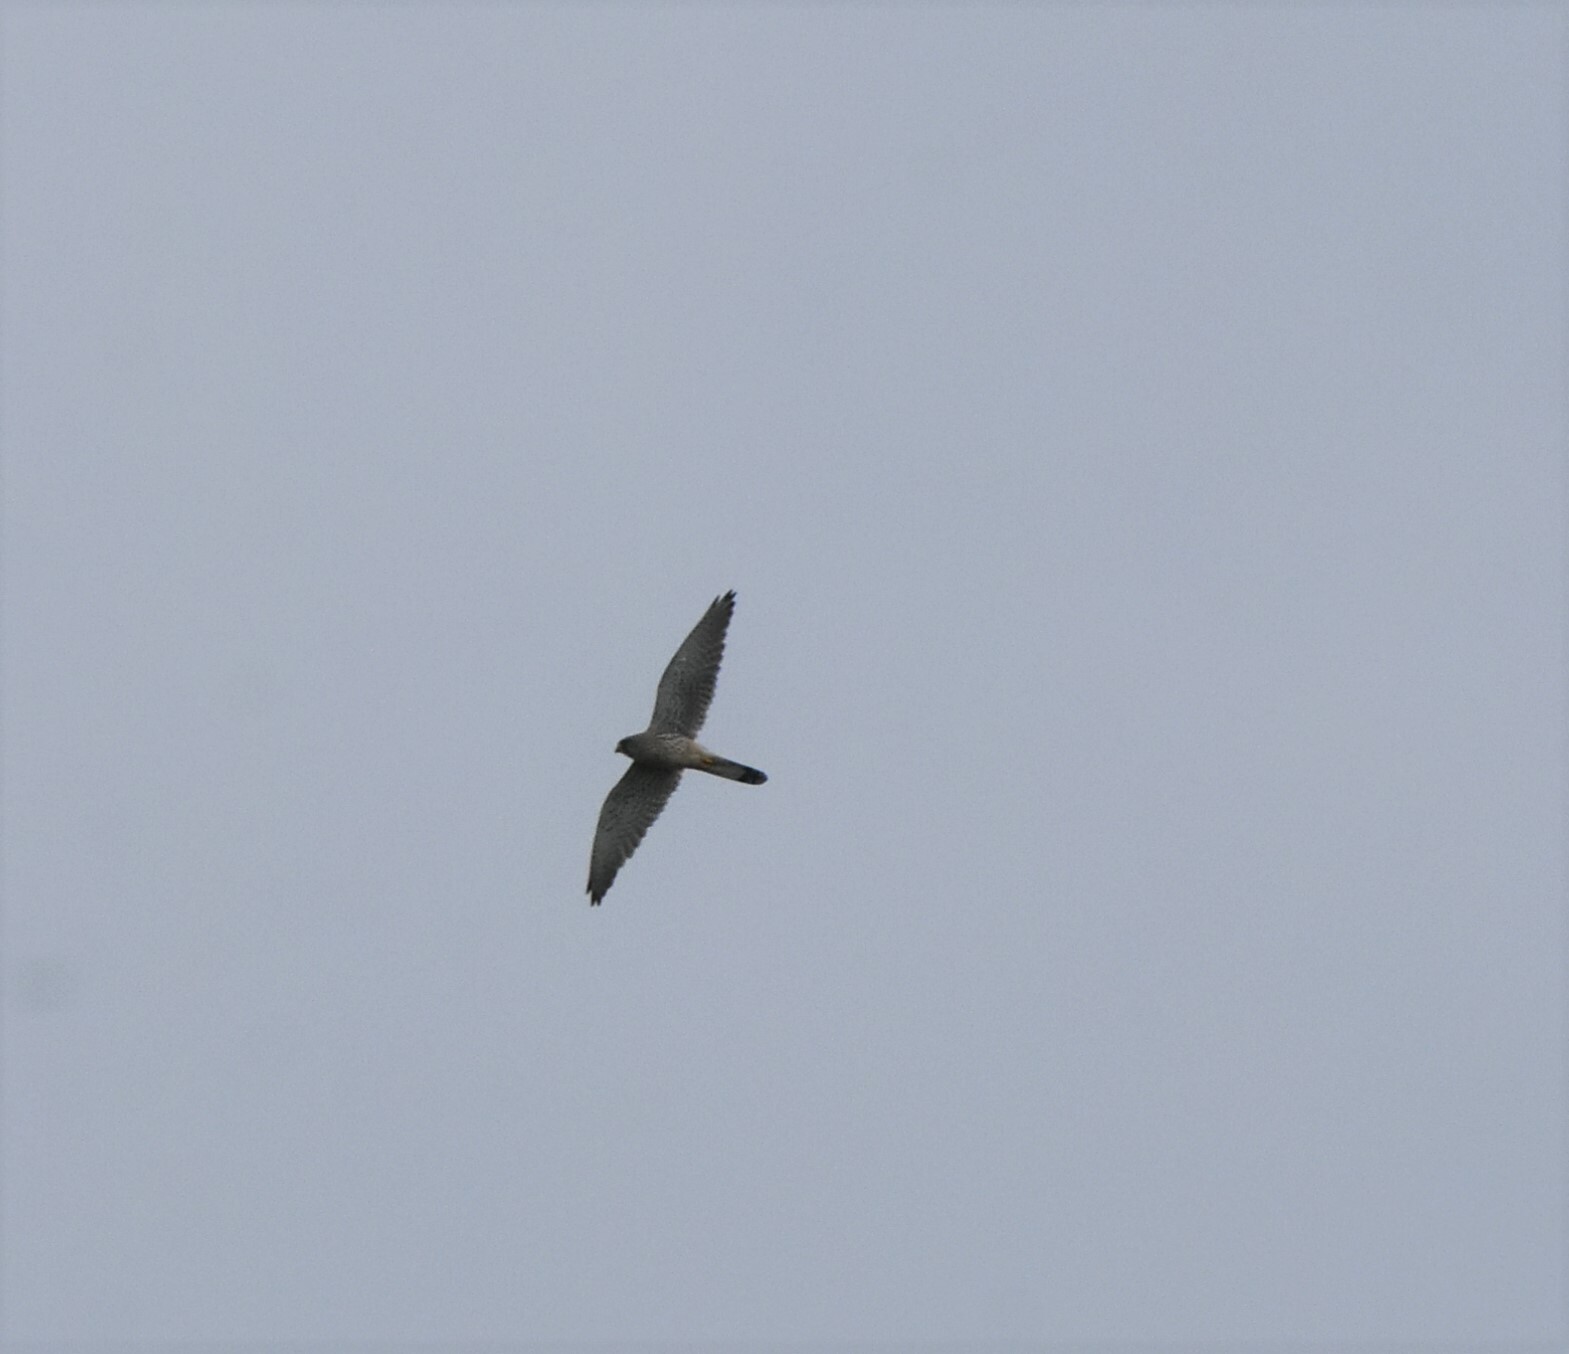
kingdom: Animalia
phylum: Chordata
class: Aves
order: Falconiformes
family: Falconidae
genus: Falco
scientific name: Falco tinnunculus
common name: Common kestrel
